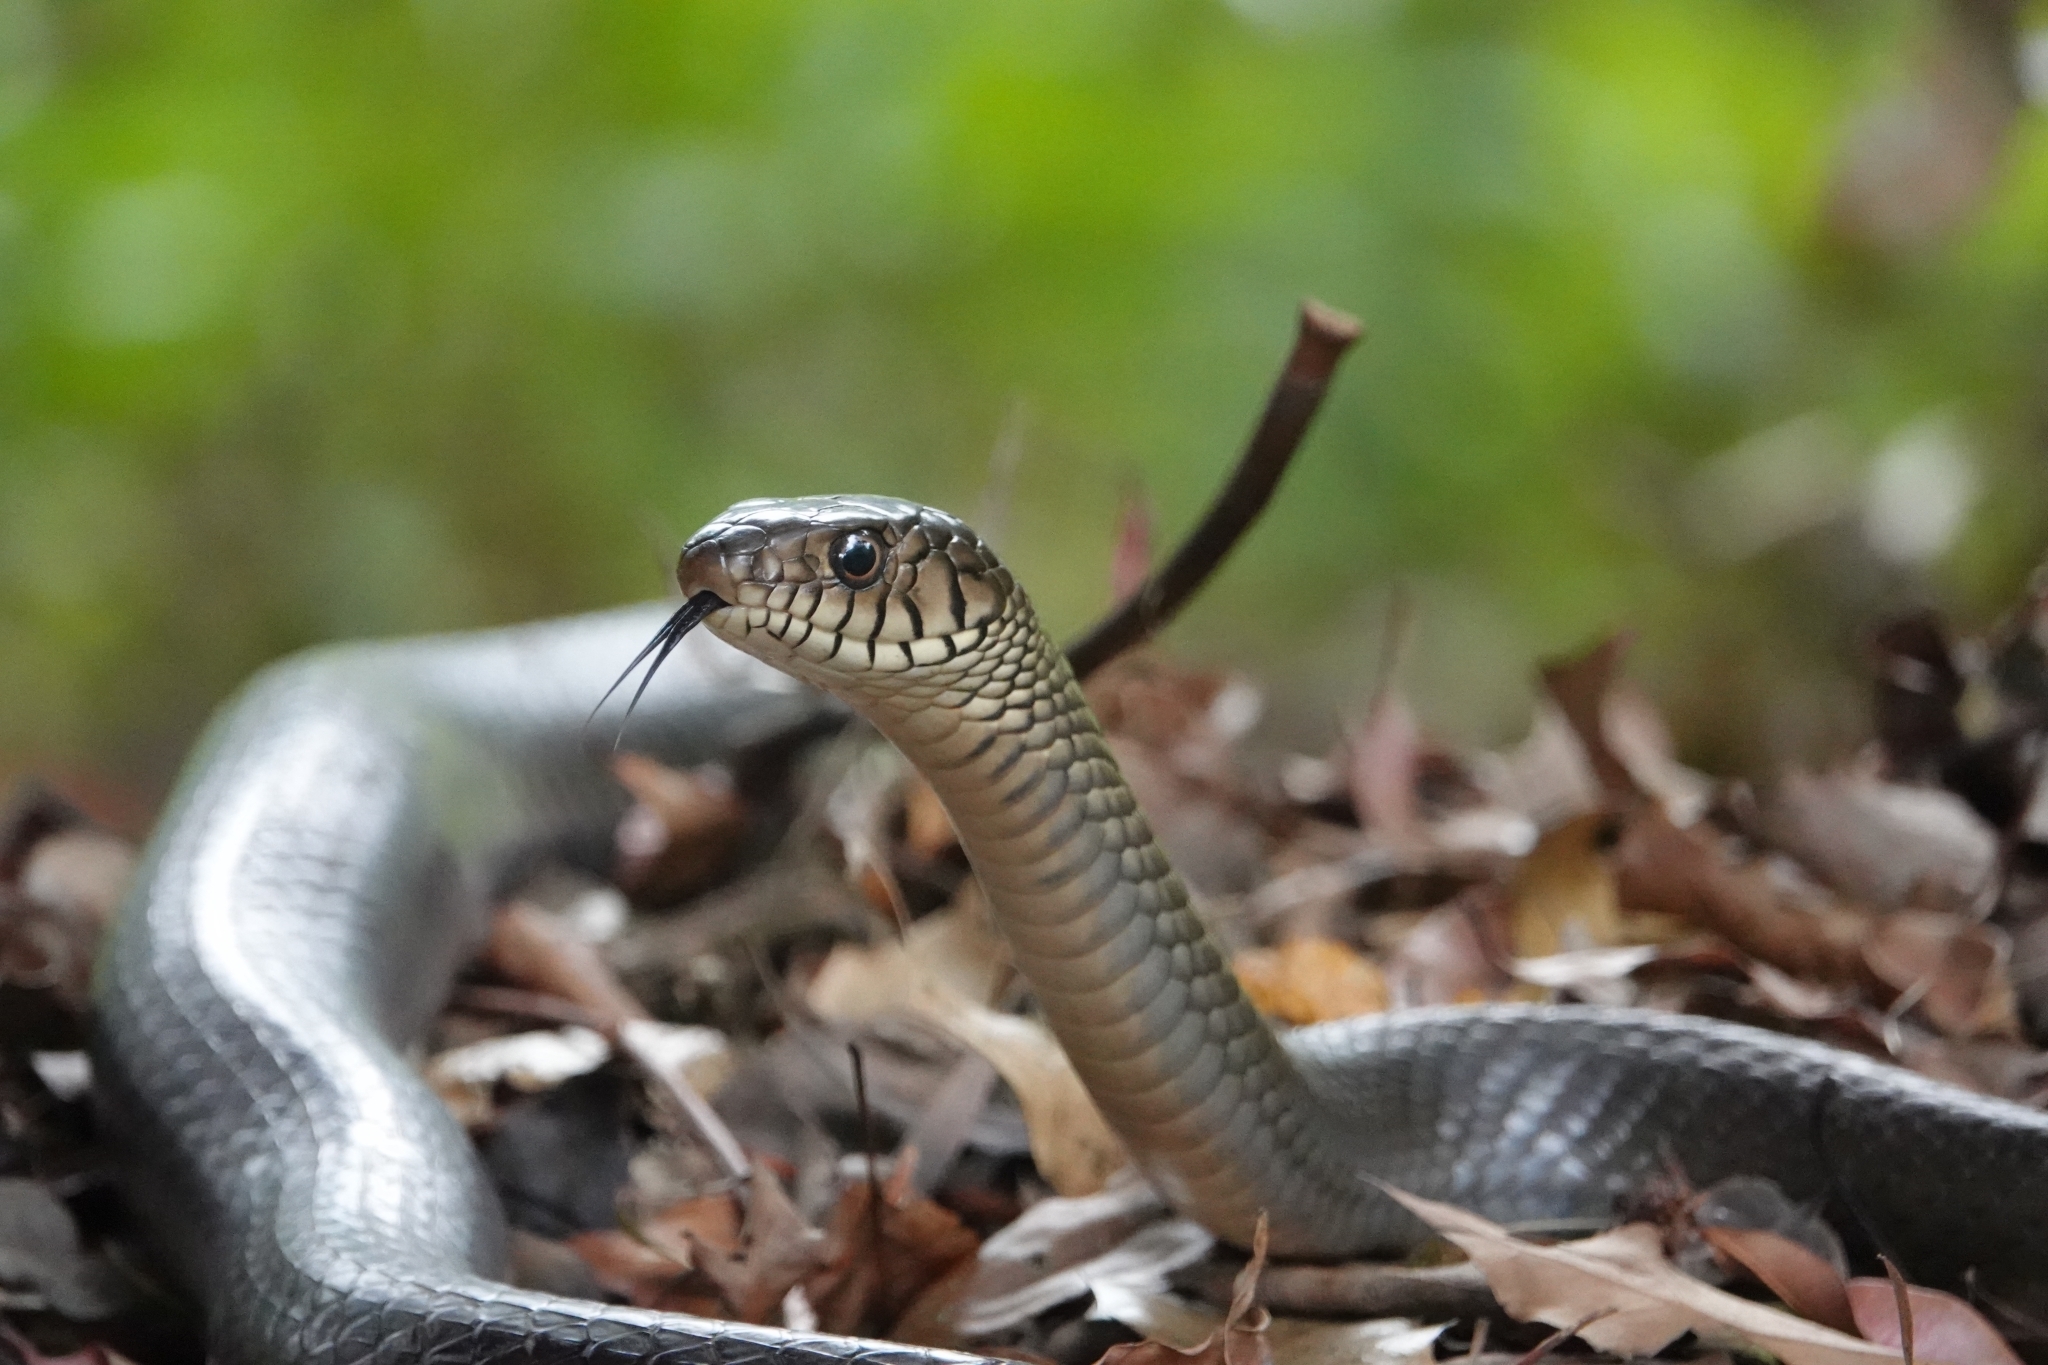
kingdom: Animalia
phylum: Chordata
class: Squamata
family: Colubridae
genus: Ptyas
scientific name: Ptyas mucosa
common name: Oriental ratsnake
